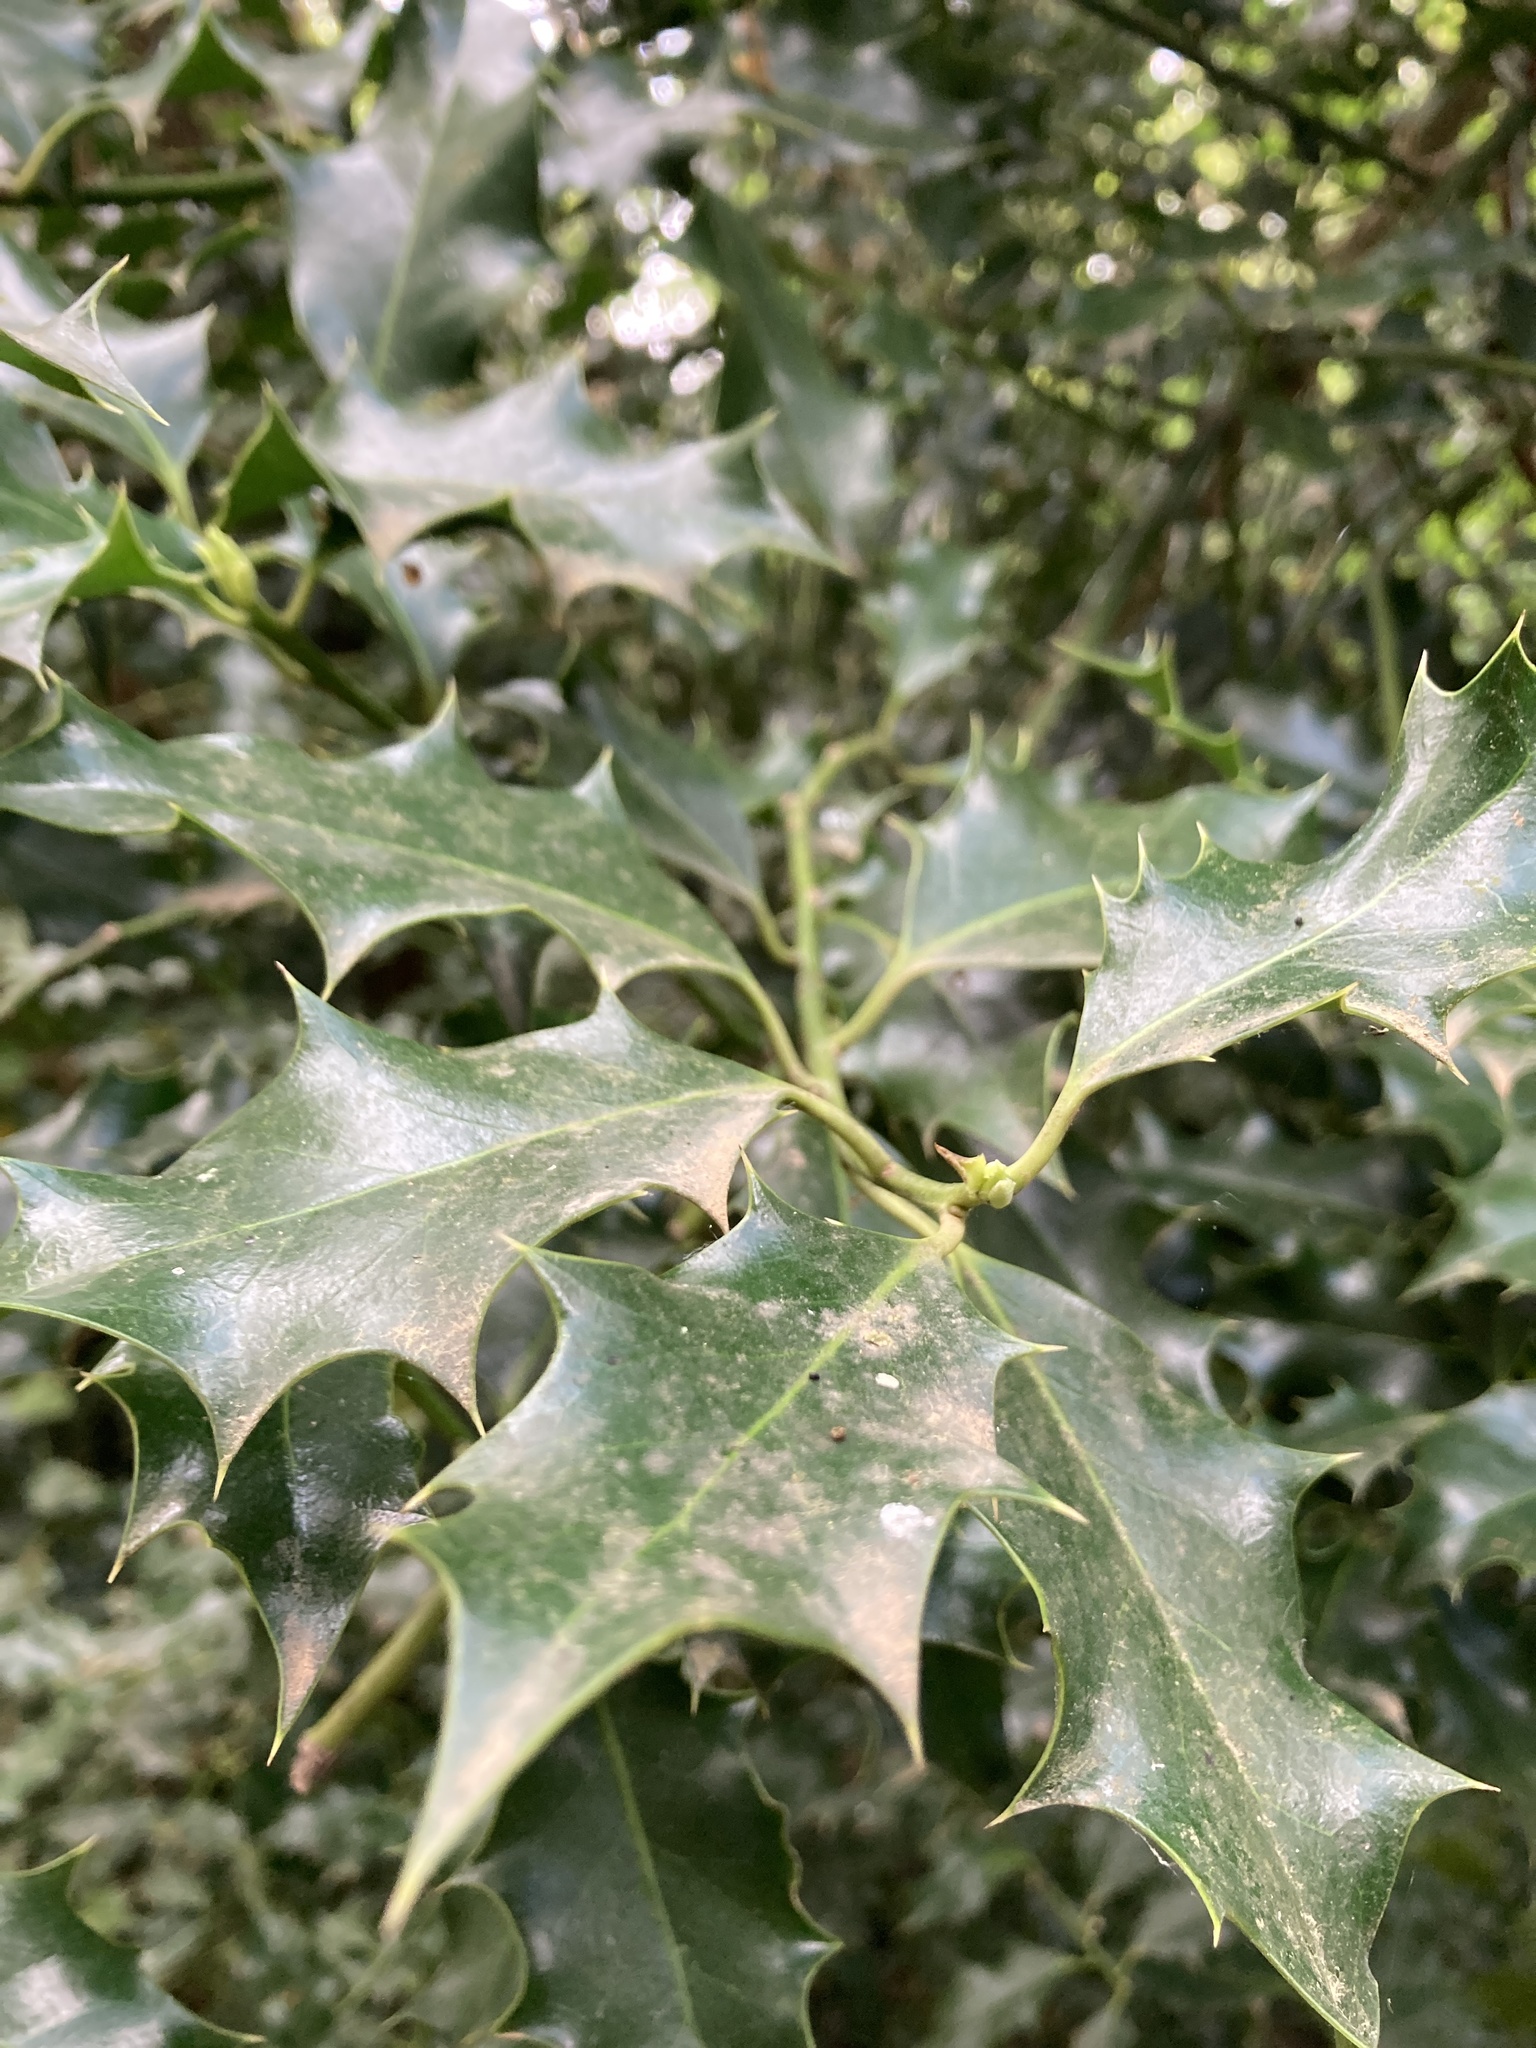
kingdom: Plantae
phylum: Tracheophyta
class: Magnoliopsida
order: Aquifoliales
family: Aquifoliaceae
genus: Ilex
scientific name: Ilex aquifolium
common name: English holly
